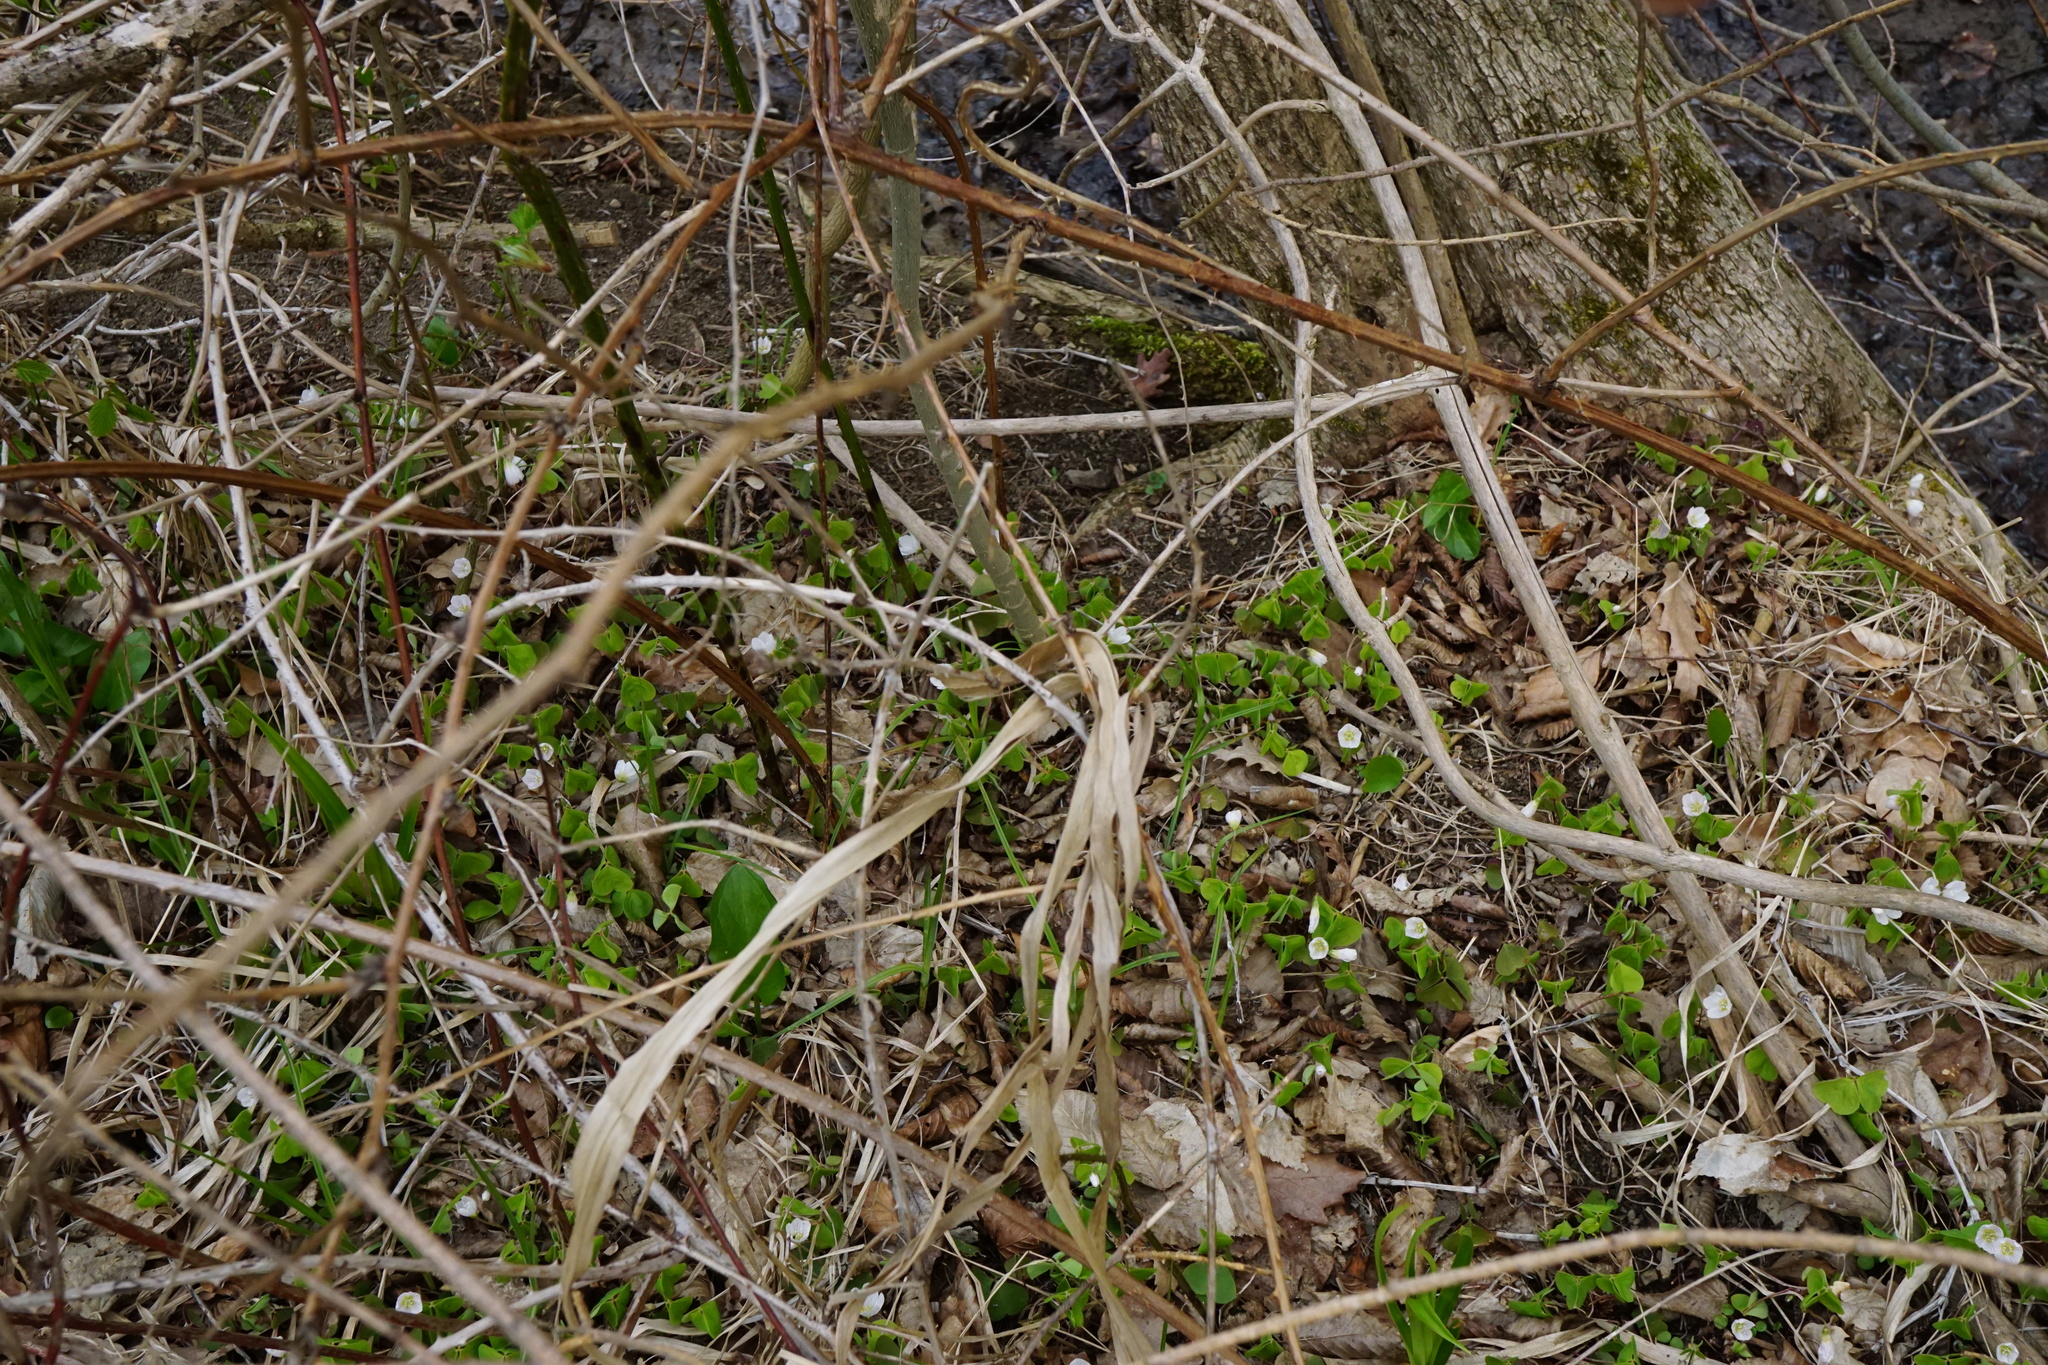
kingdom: Plantae
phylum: Tracheophyta
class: Magnoliopsida
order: Oxalidales
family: Oxalidaceae
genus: Oxalis
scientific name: Oxalis acetosella
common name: Wood-sorrel
